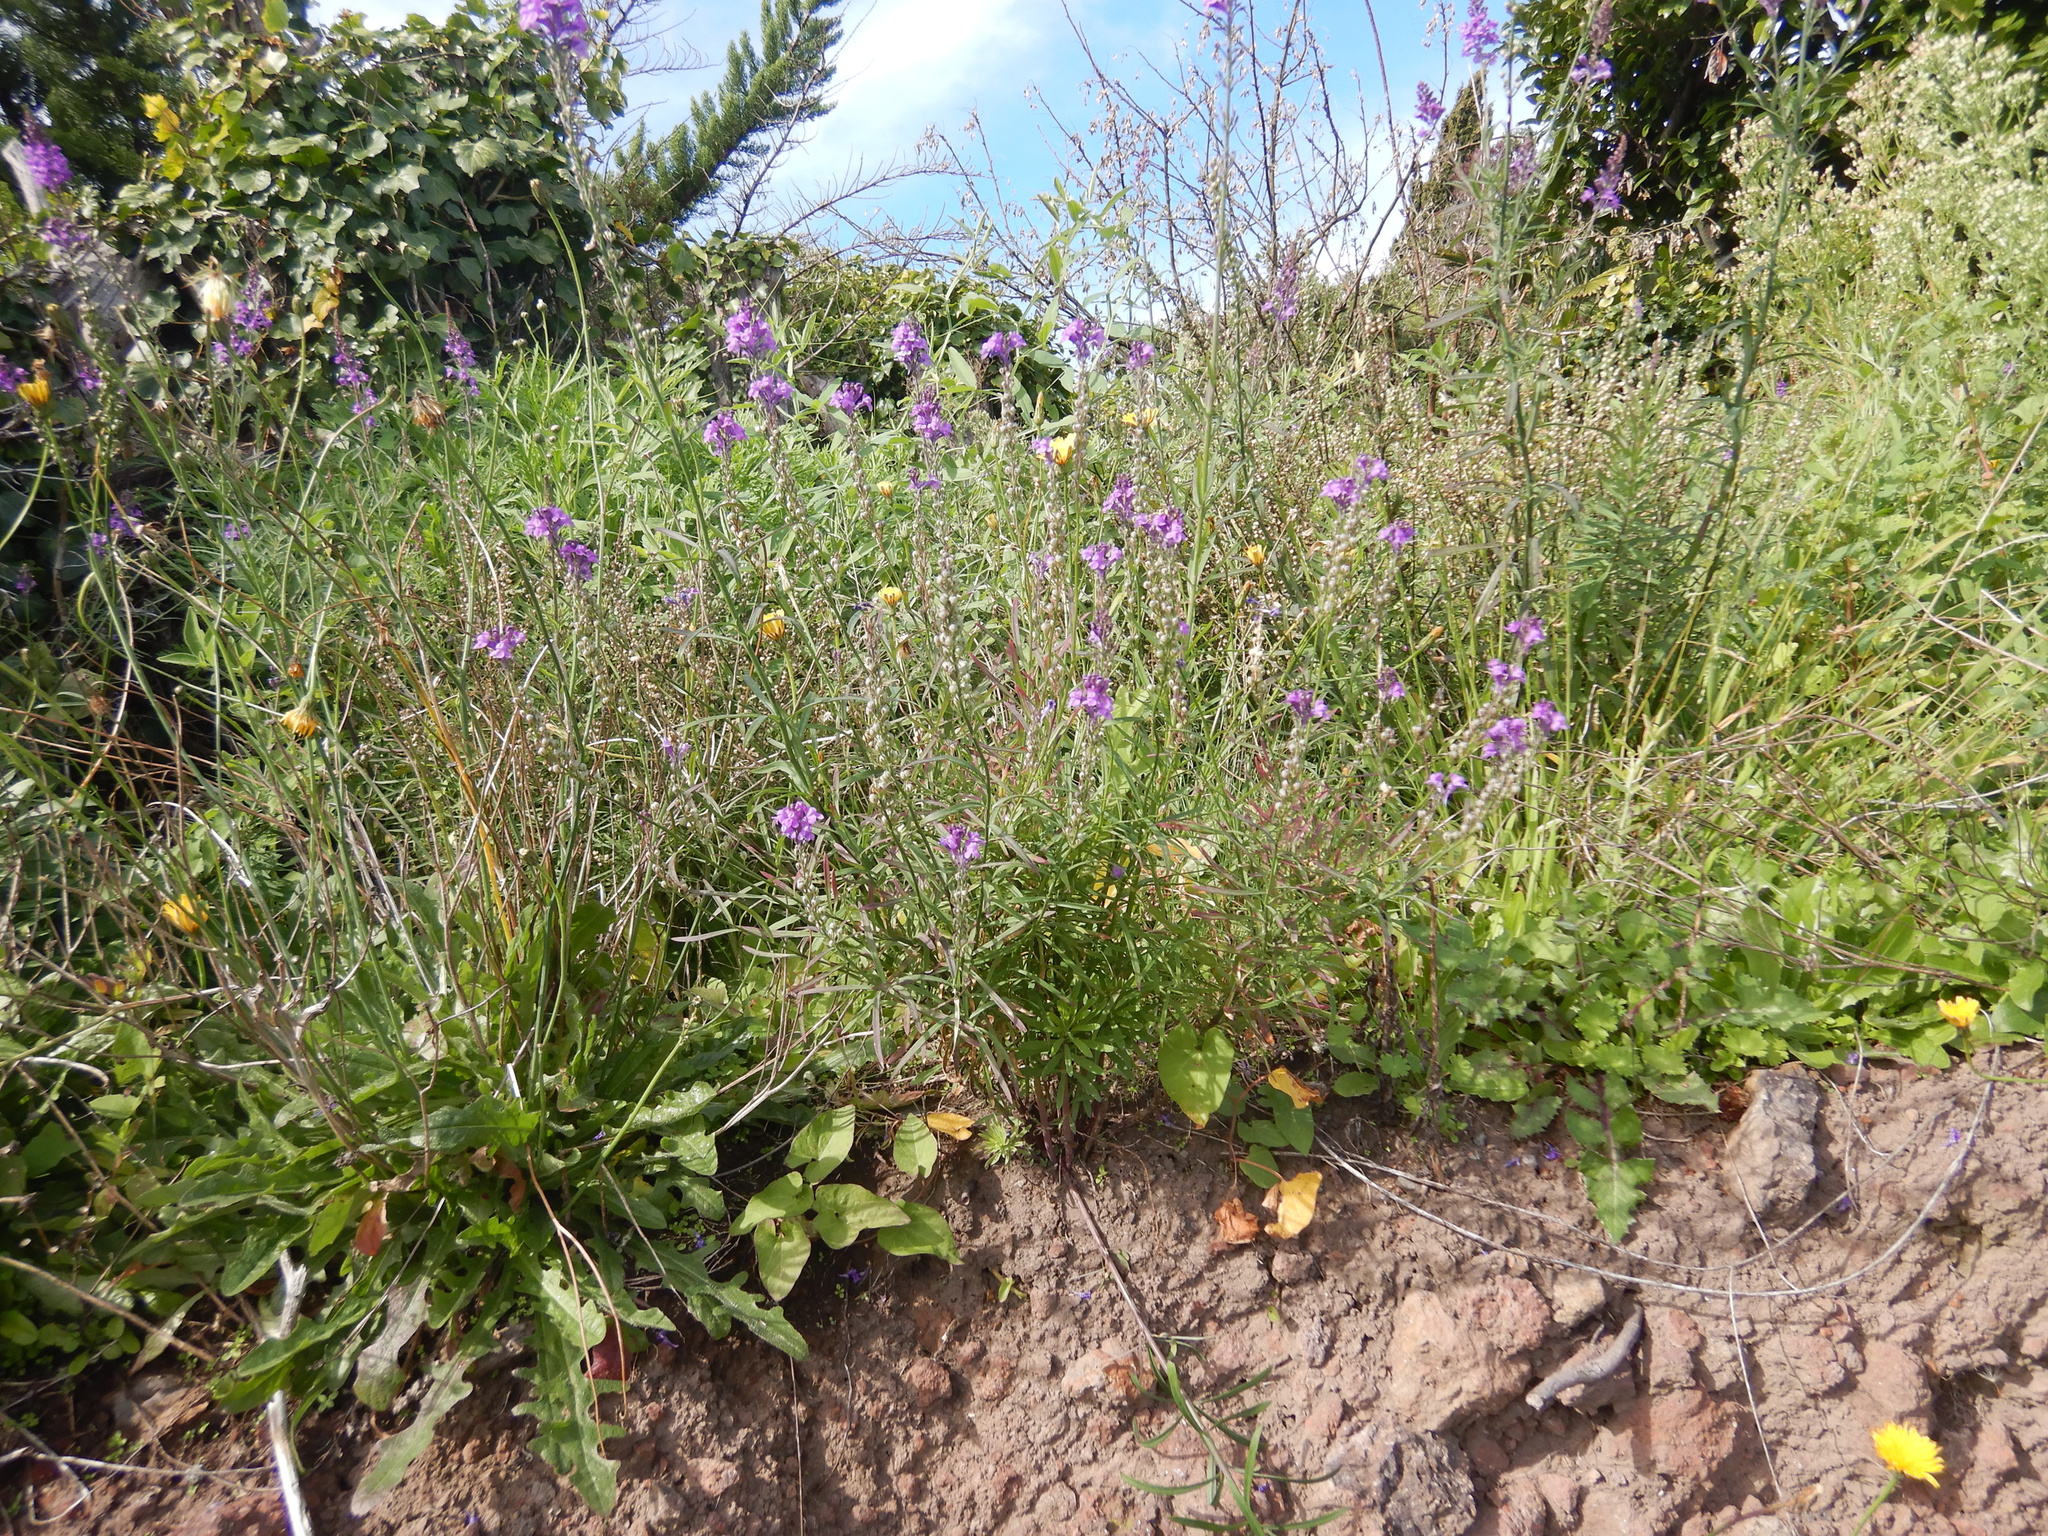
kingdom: Plantae
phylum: Tracheophyta
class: Magnoliopsida
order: Lamiales
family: Plantaginaceae
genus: Linaria
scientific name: Linaria purpurea
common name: Purple toadflax
